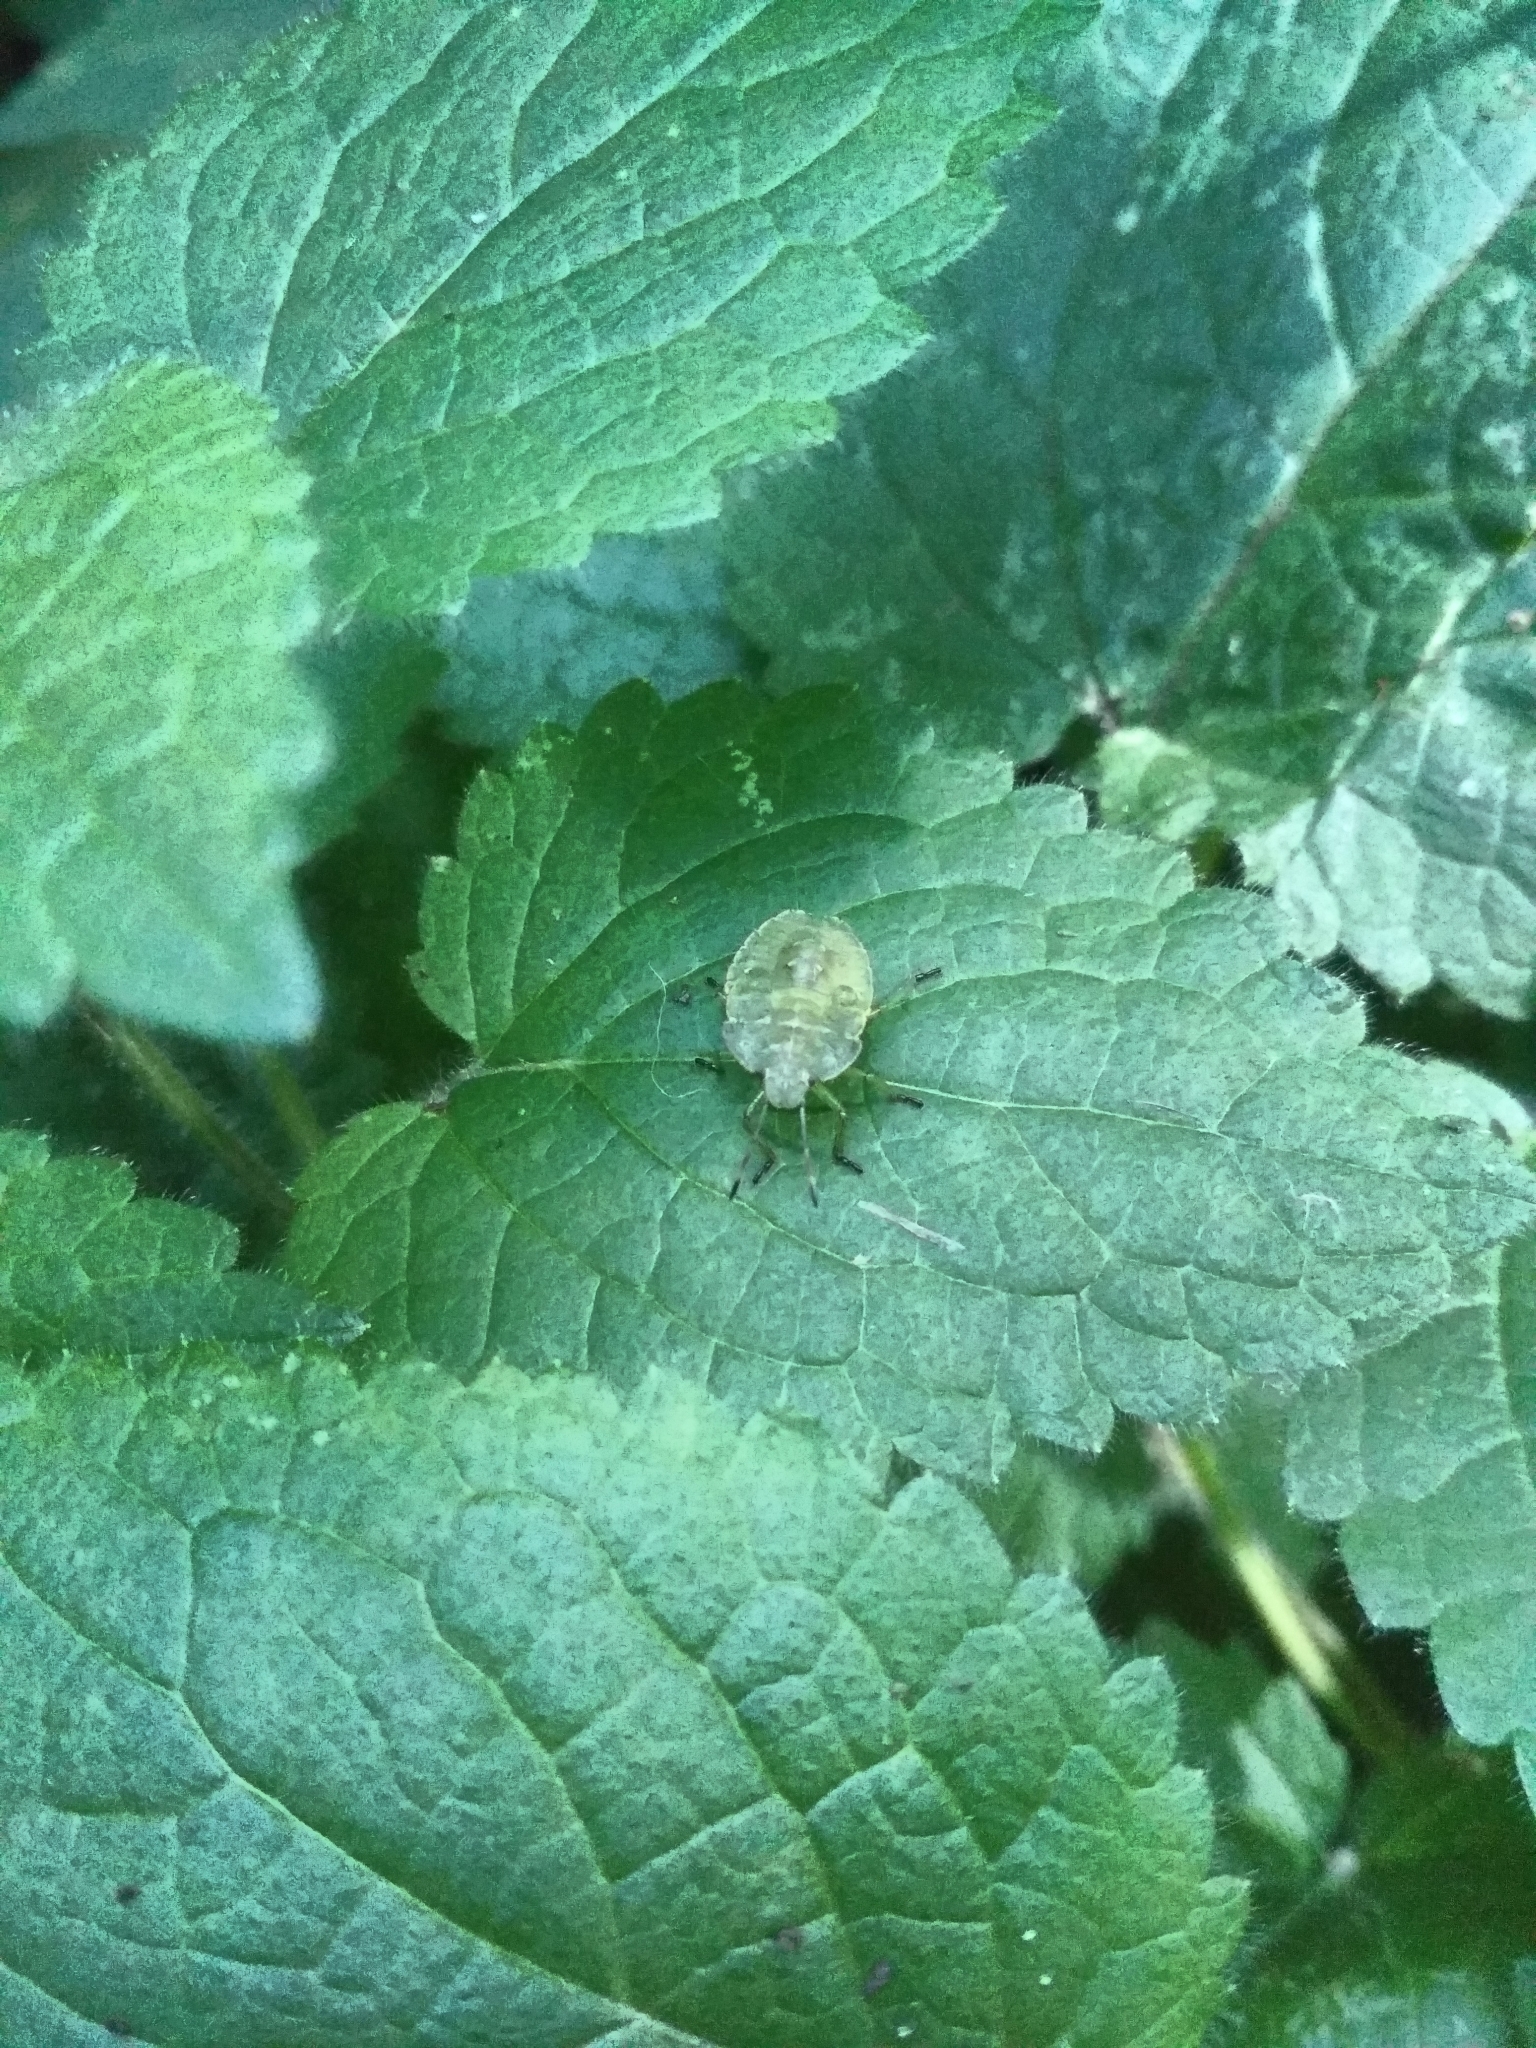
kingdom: Animalia
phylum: Arthropoda
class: Insecta
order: Hemiptera
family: Pentatomidae
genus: Palomena
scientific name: Palomena prasina
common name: Green shieldbug
